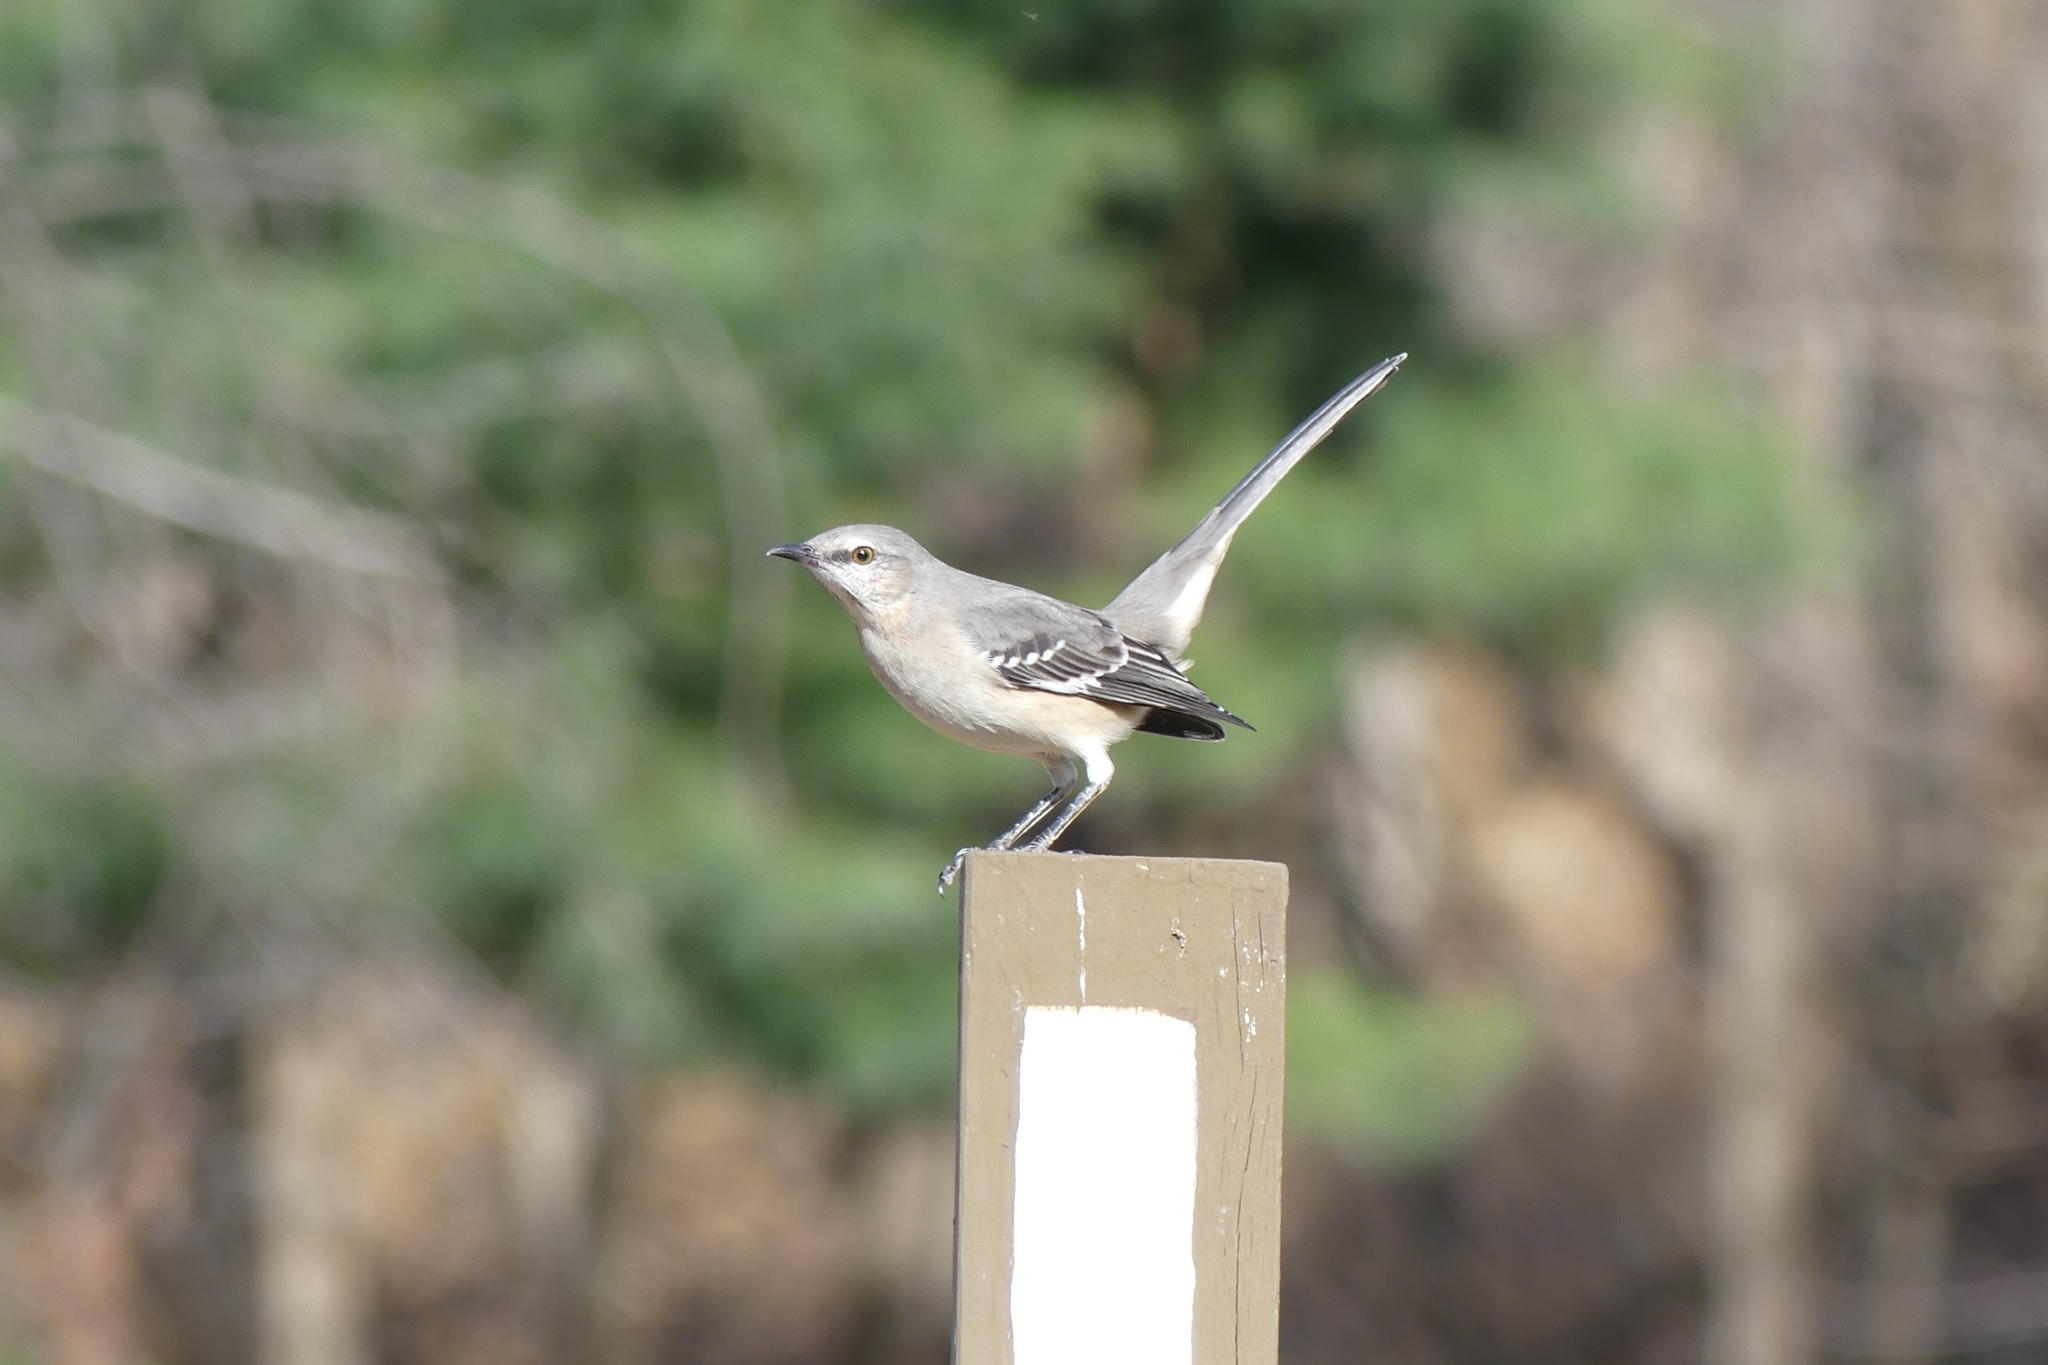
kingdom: Animalia
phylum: Chordata
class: Aves
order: Passeriformes
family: Mimidae
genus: Mimus
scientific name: Mimus polyglottos
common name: Northern mockingbird
